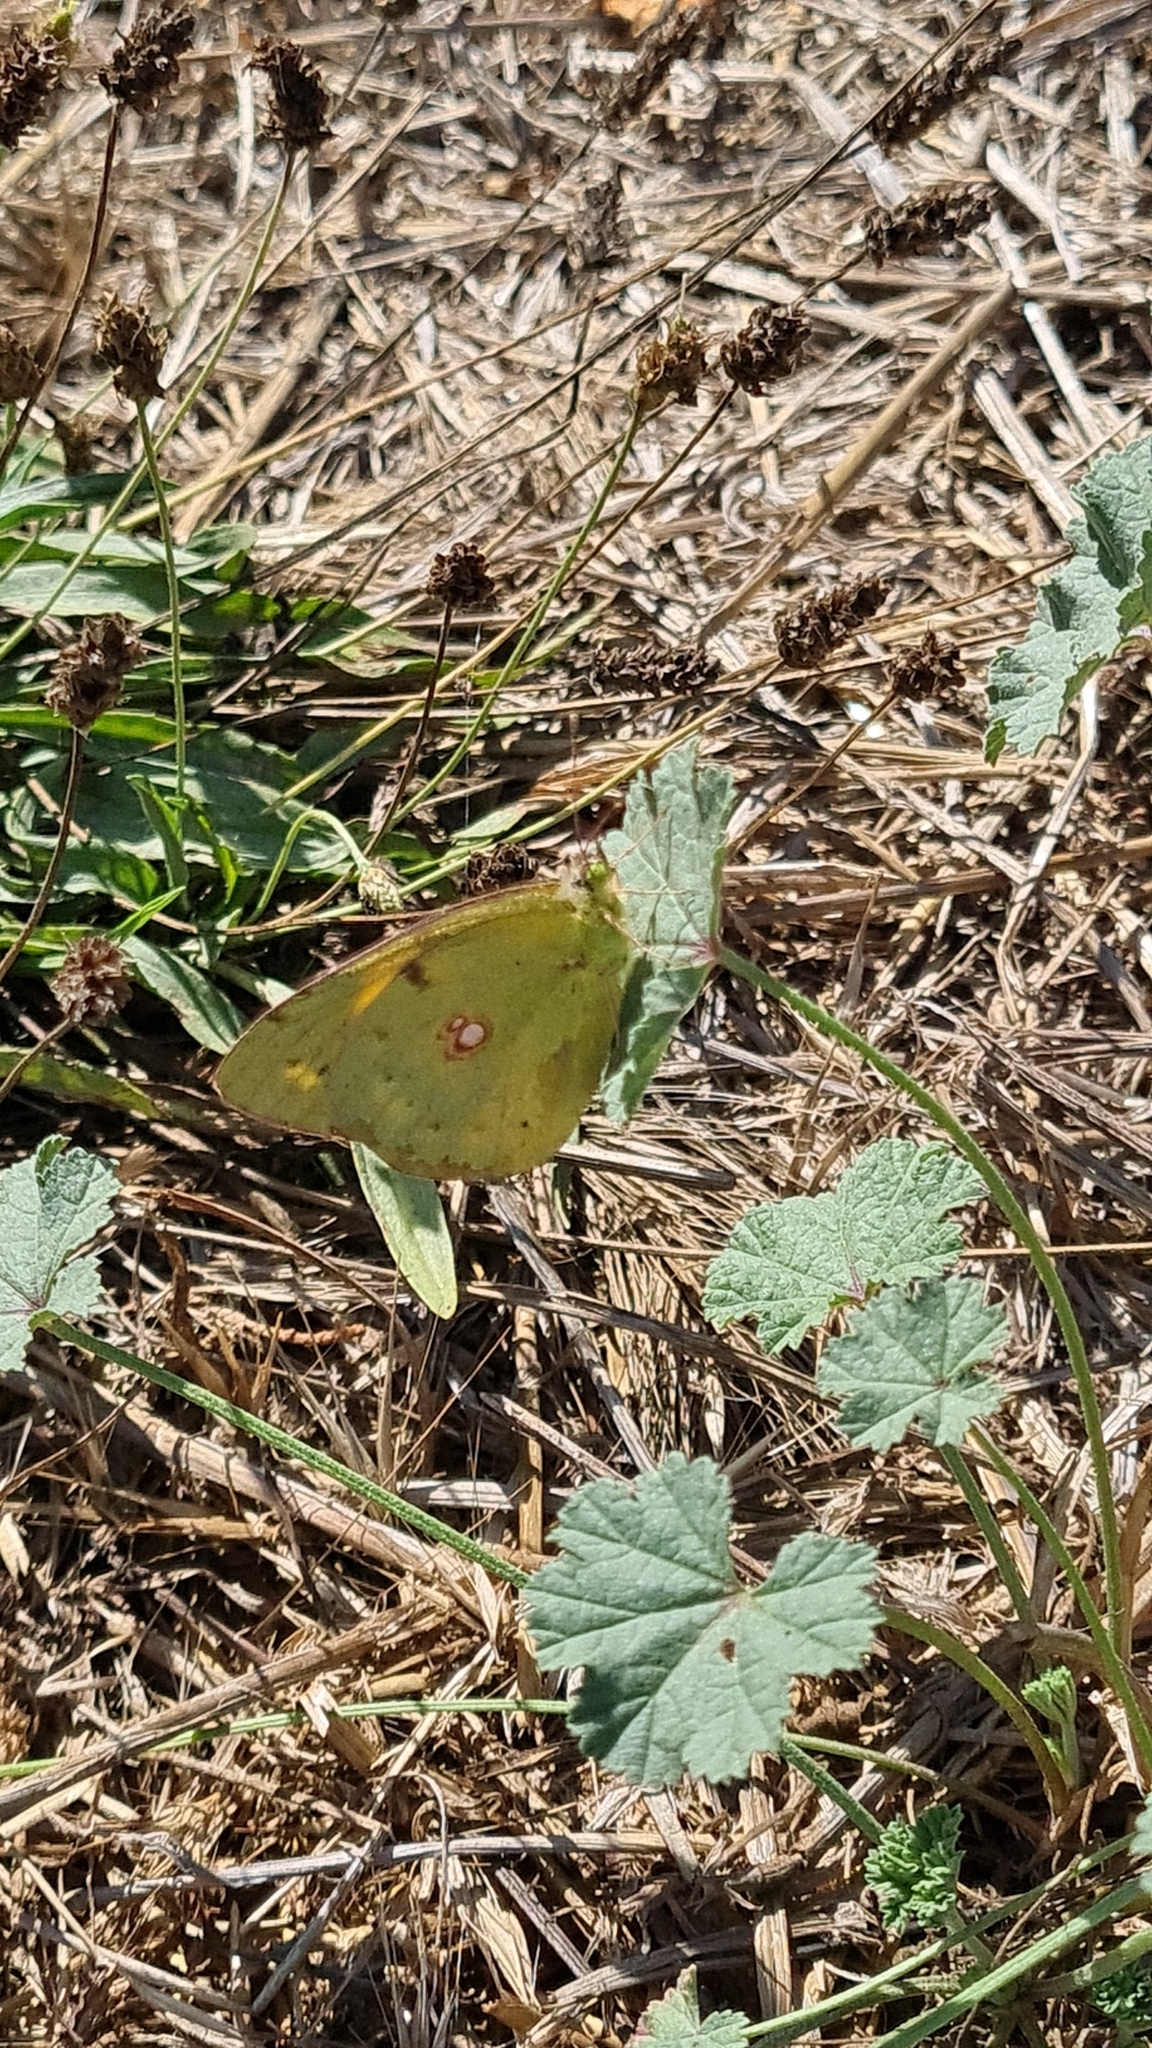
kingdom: Animalia
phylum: Arthropoda
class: Insecta
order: Lepidoptera
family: Pieridae
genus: Colias
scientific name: Colias croceus
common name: Clouded yellow
